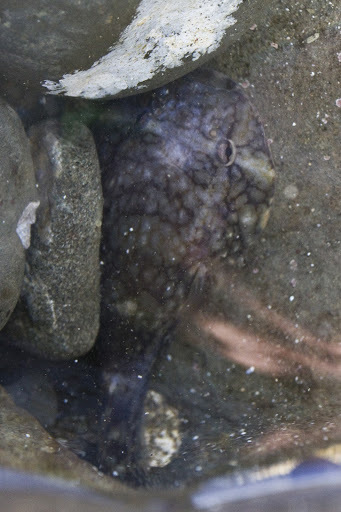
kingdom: Animalia
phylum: Chordata
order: Gobiesociformes
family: Gobiesocidae
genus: Gobiesox
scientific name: Gobiesox maeandricus
